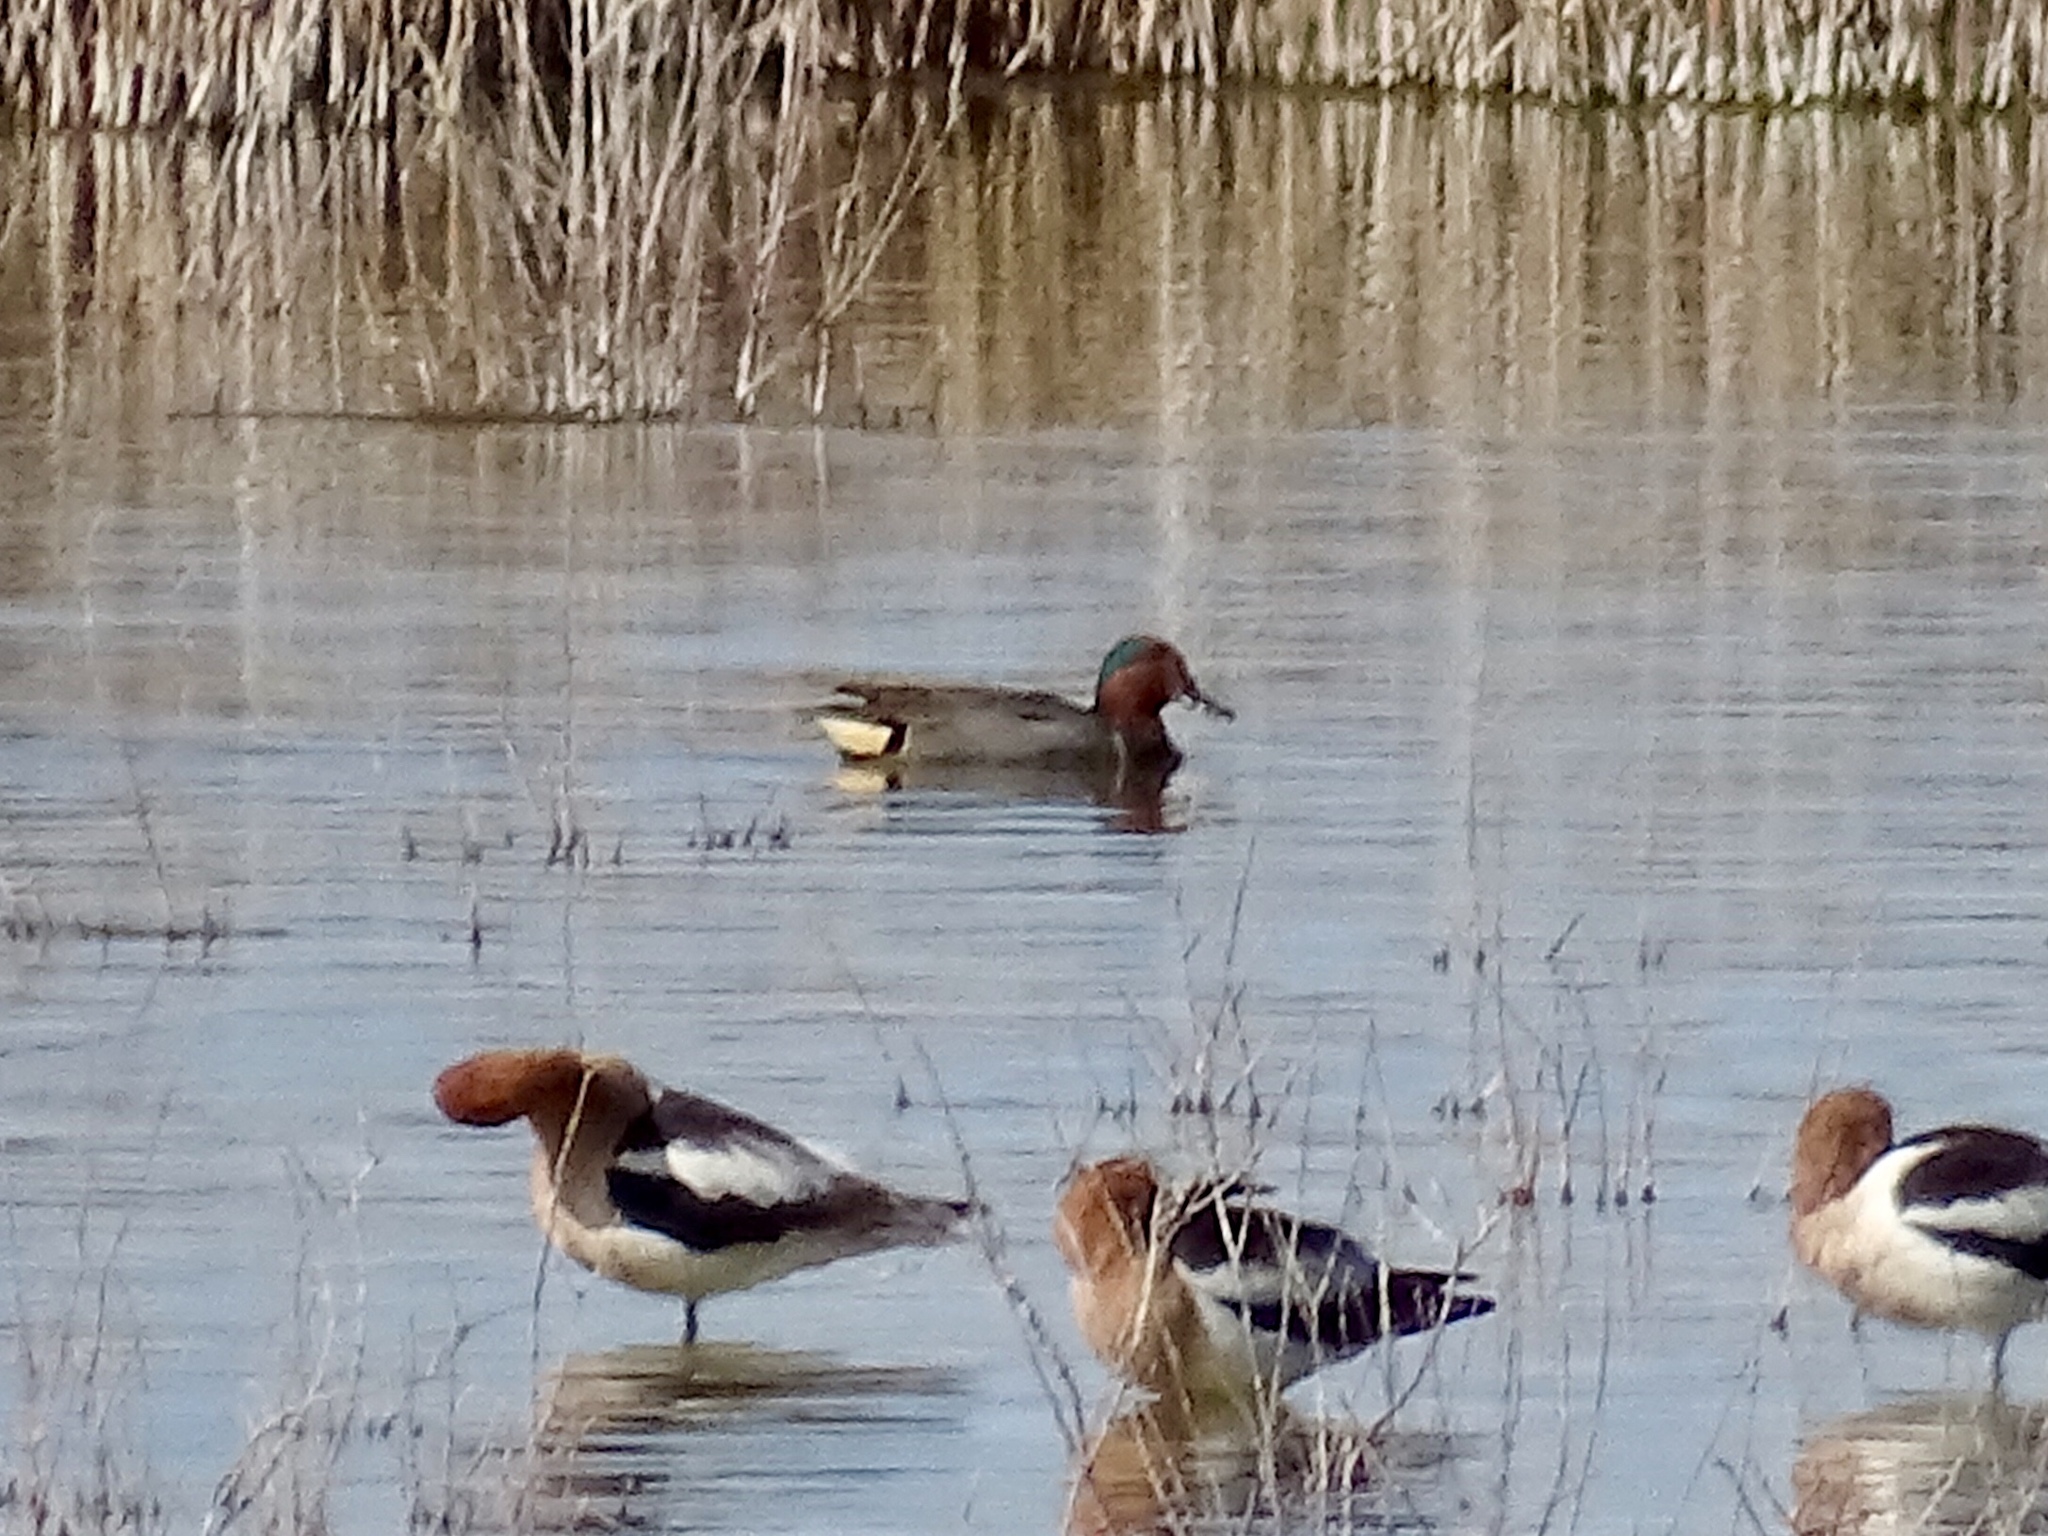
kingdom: Animalia
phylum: Chordata
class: Aves
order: Anseriformes
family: Anatidae
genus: Anas
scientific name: Anas crecca
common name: Eurasian teal
